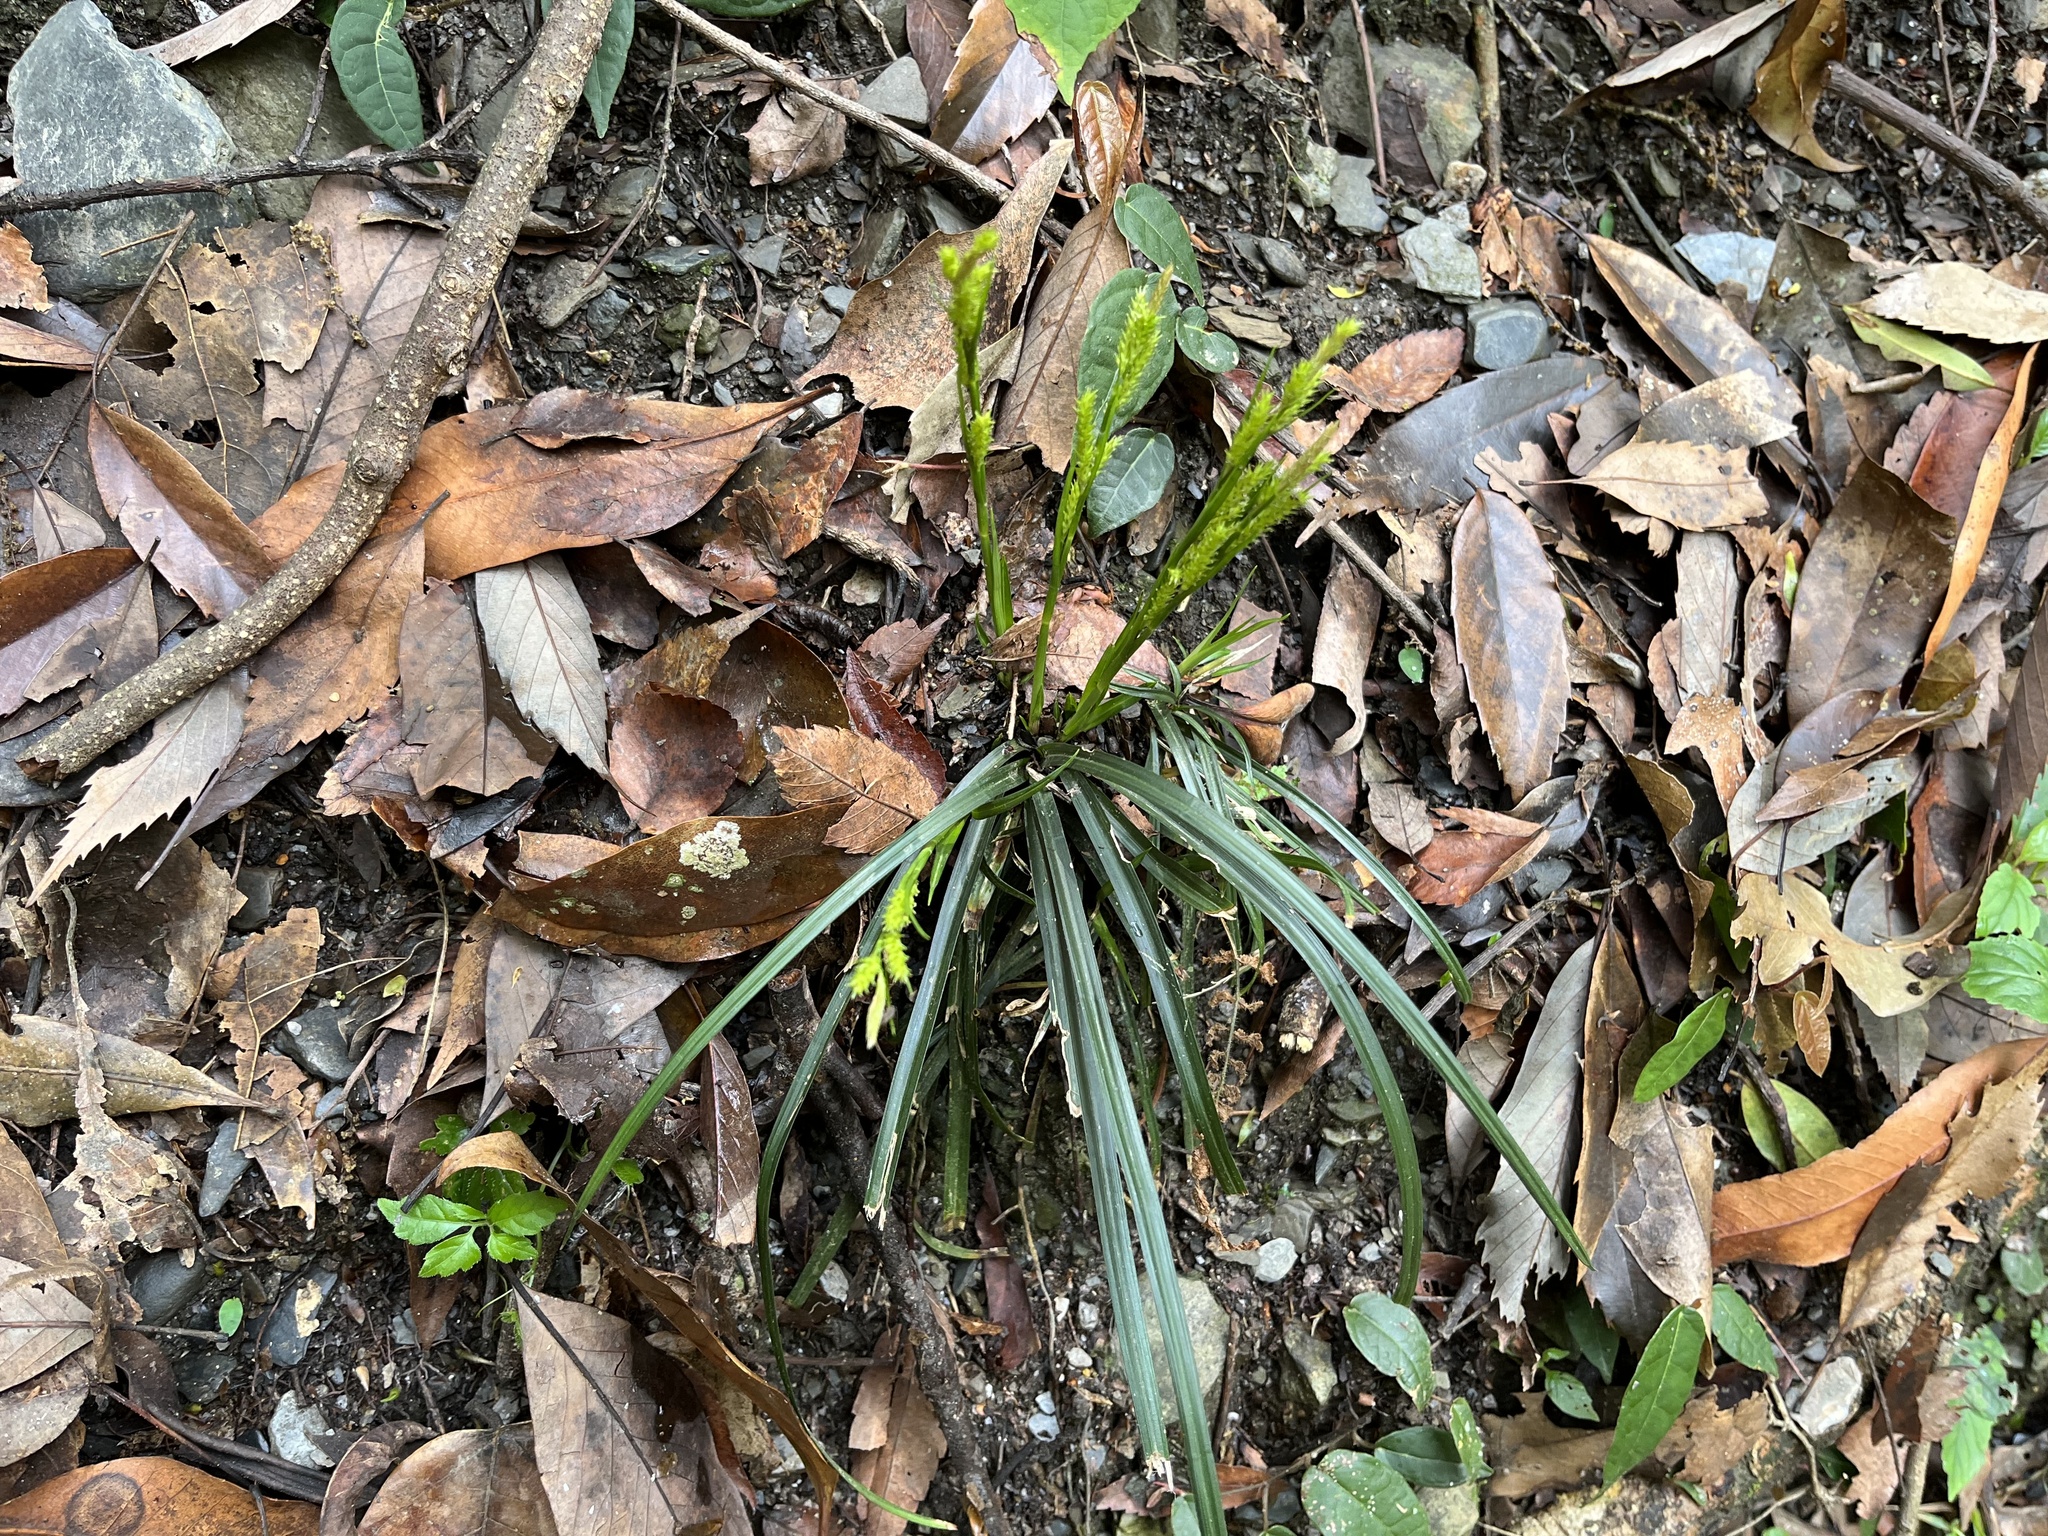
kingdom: Plantae
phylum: Tracheophyta
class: Liliopsida
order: Poales
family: Cyperaceae
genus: Carex
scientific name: Carex sociata
